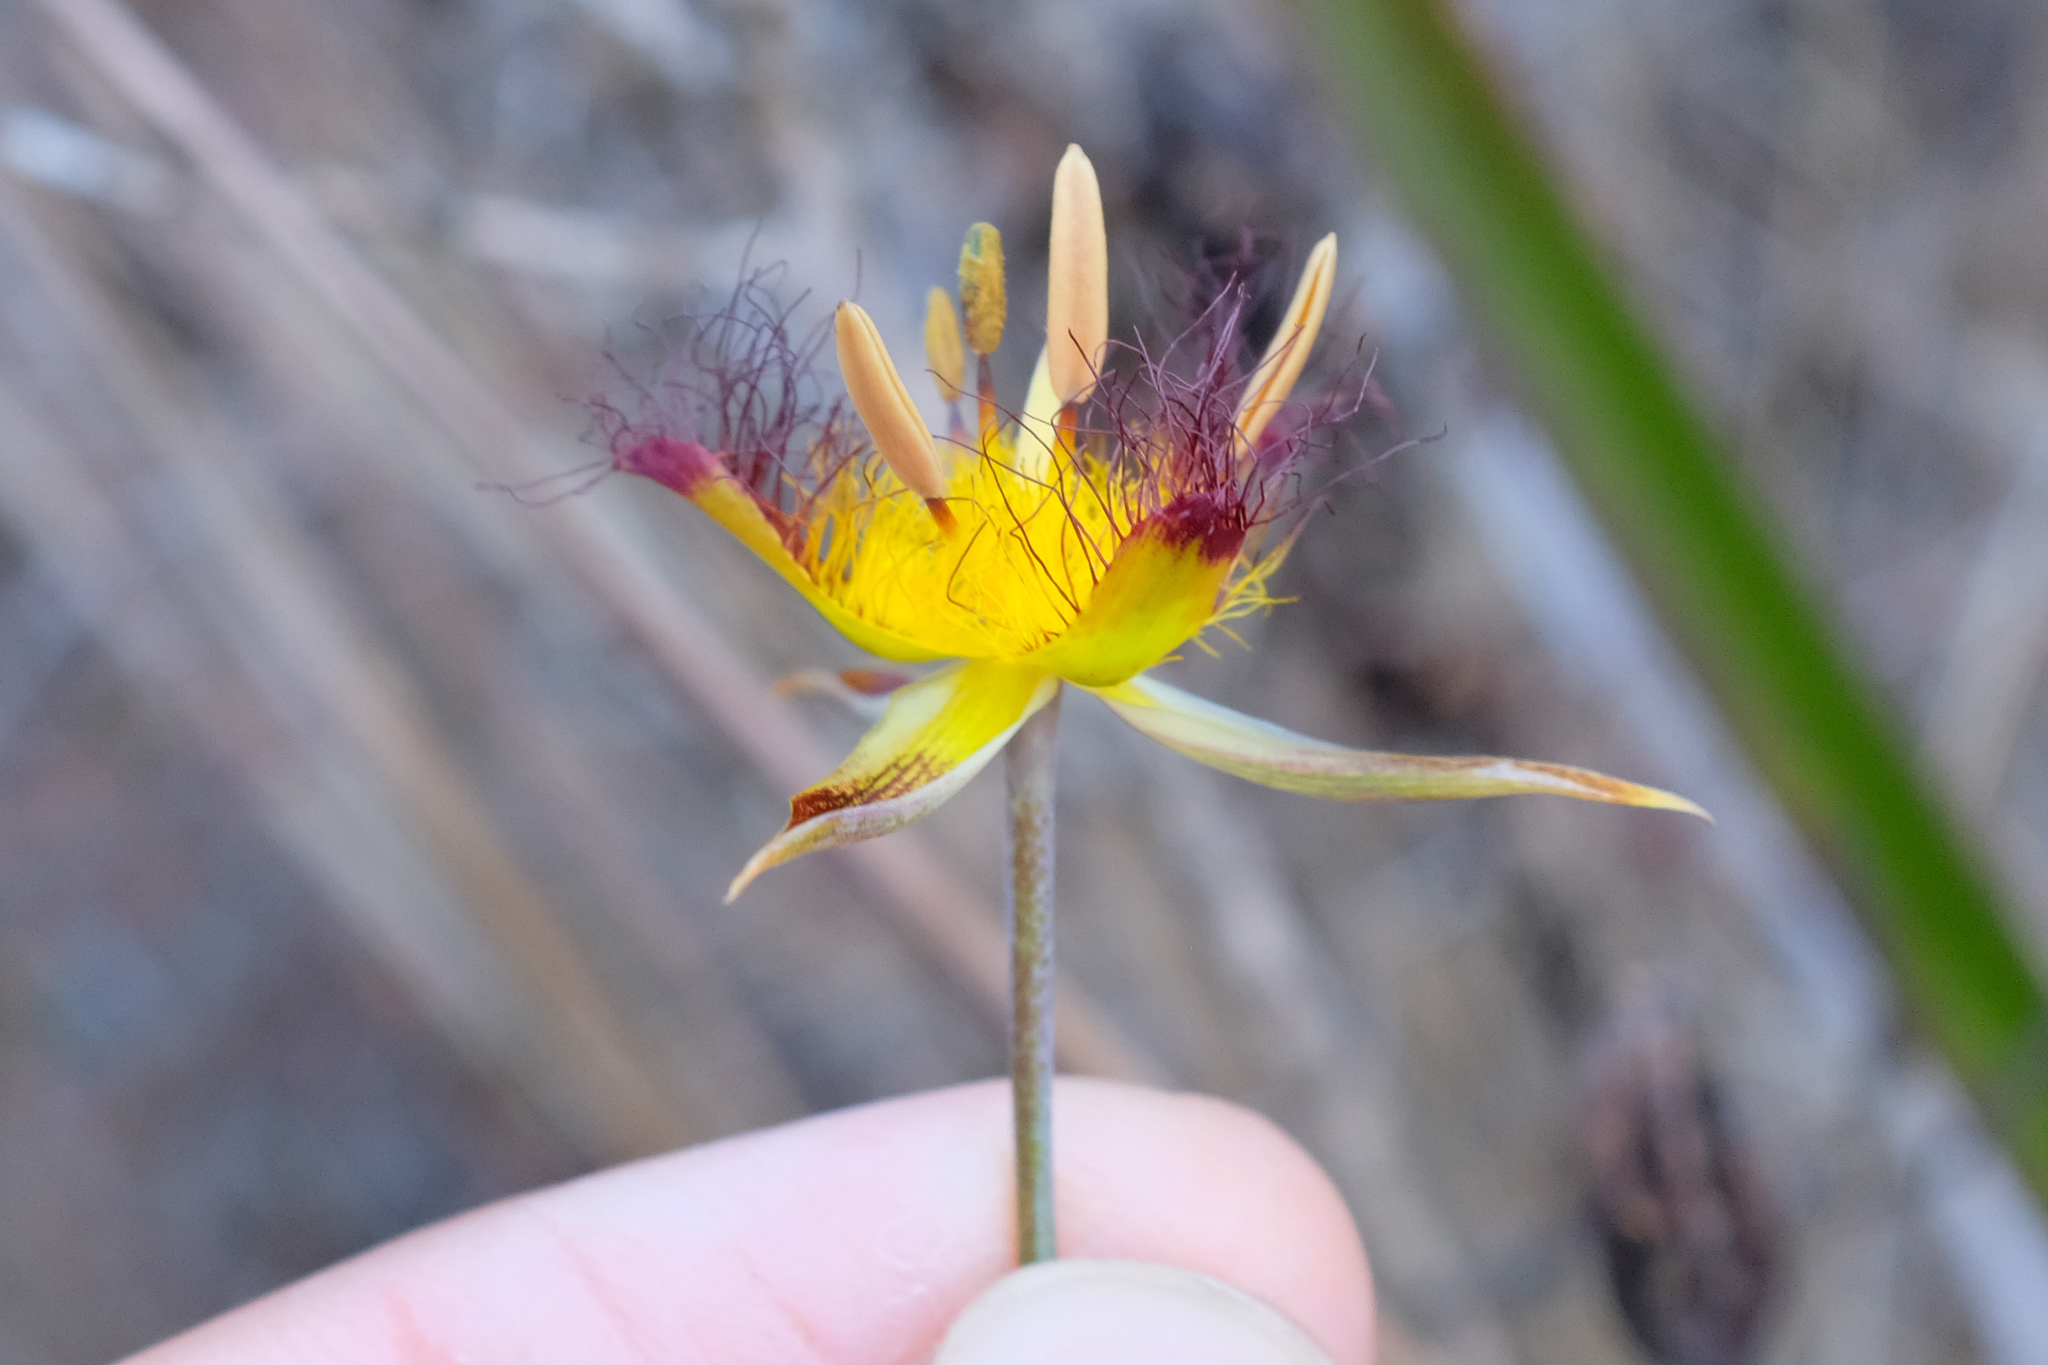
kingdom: Plantae
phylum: Tracheophyta
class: Liliopsida
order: Liliales
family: Liliaceae
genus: Calochortus
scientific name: Calochortus obispoensis
